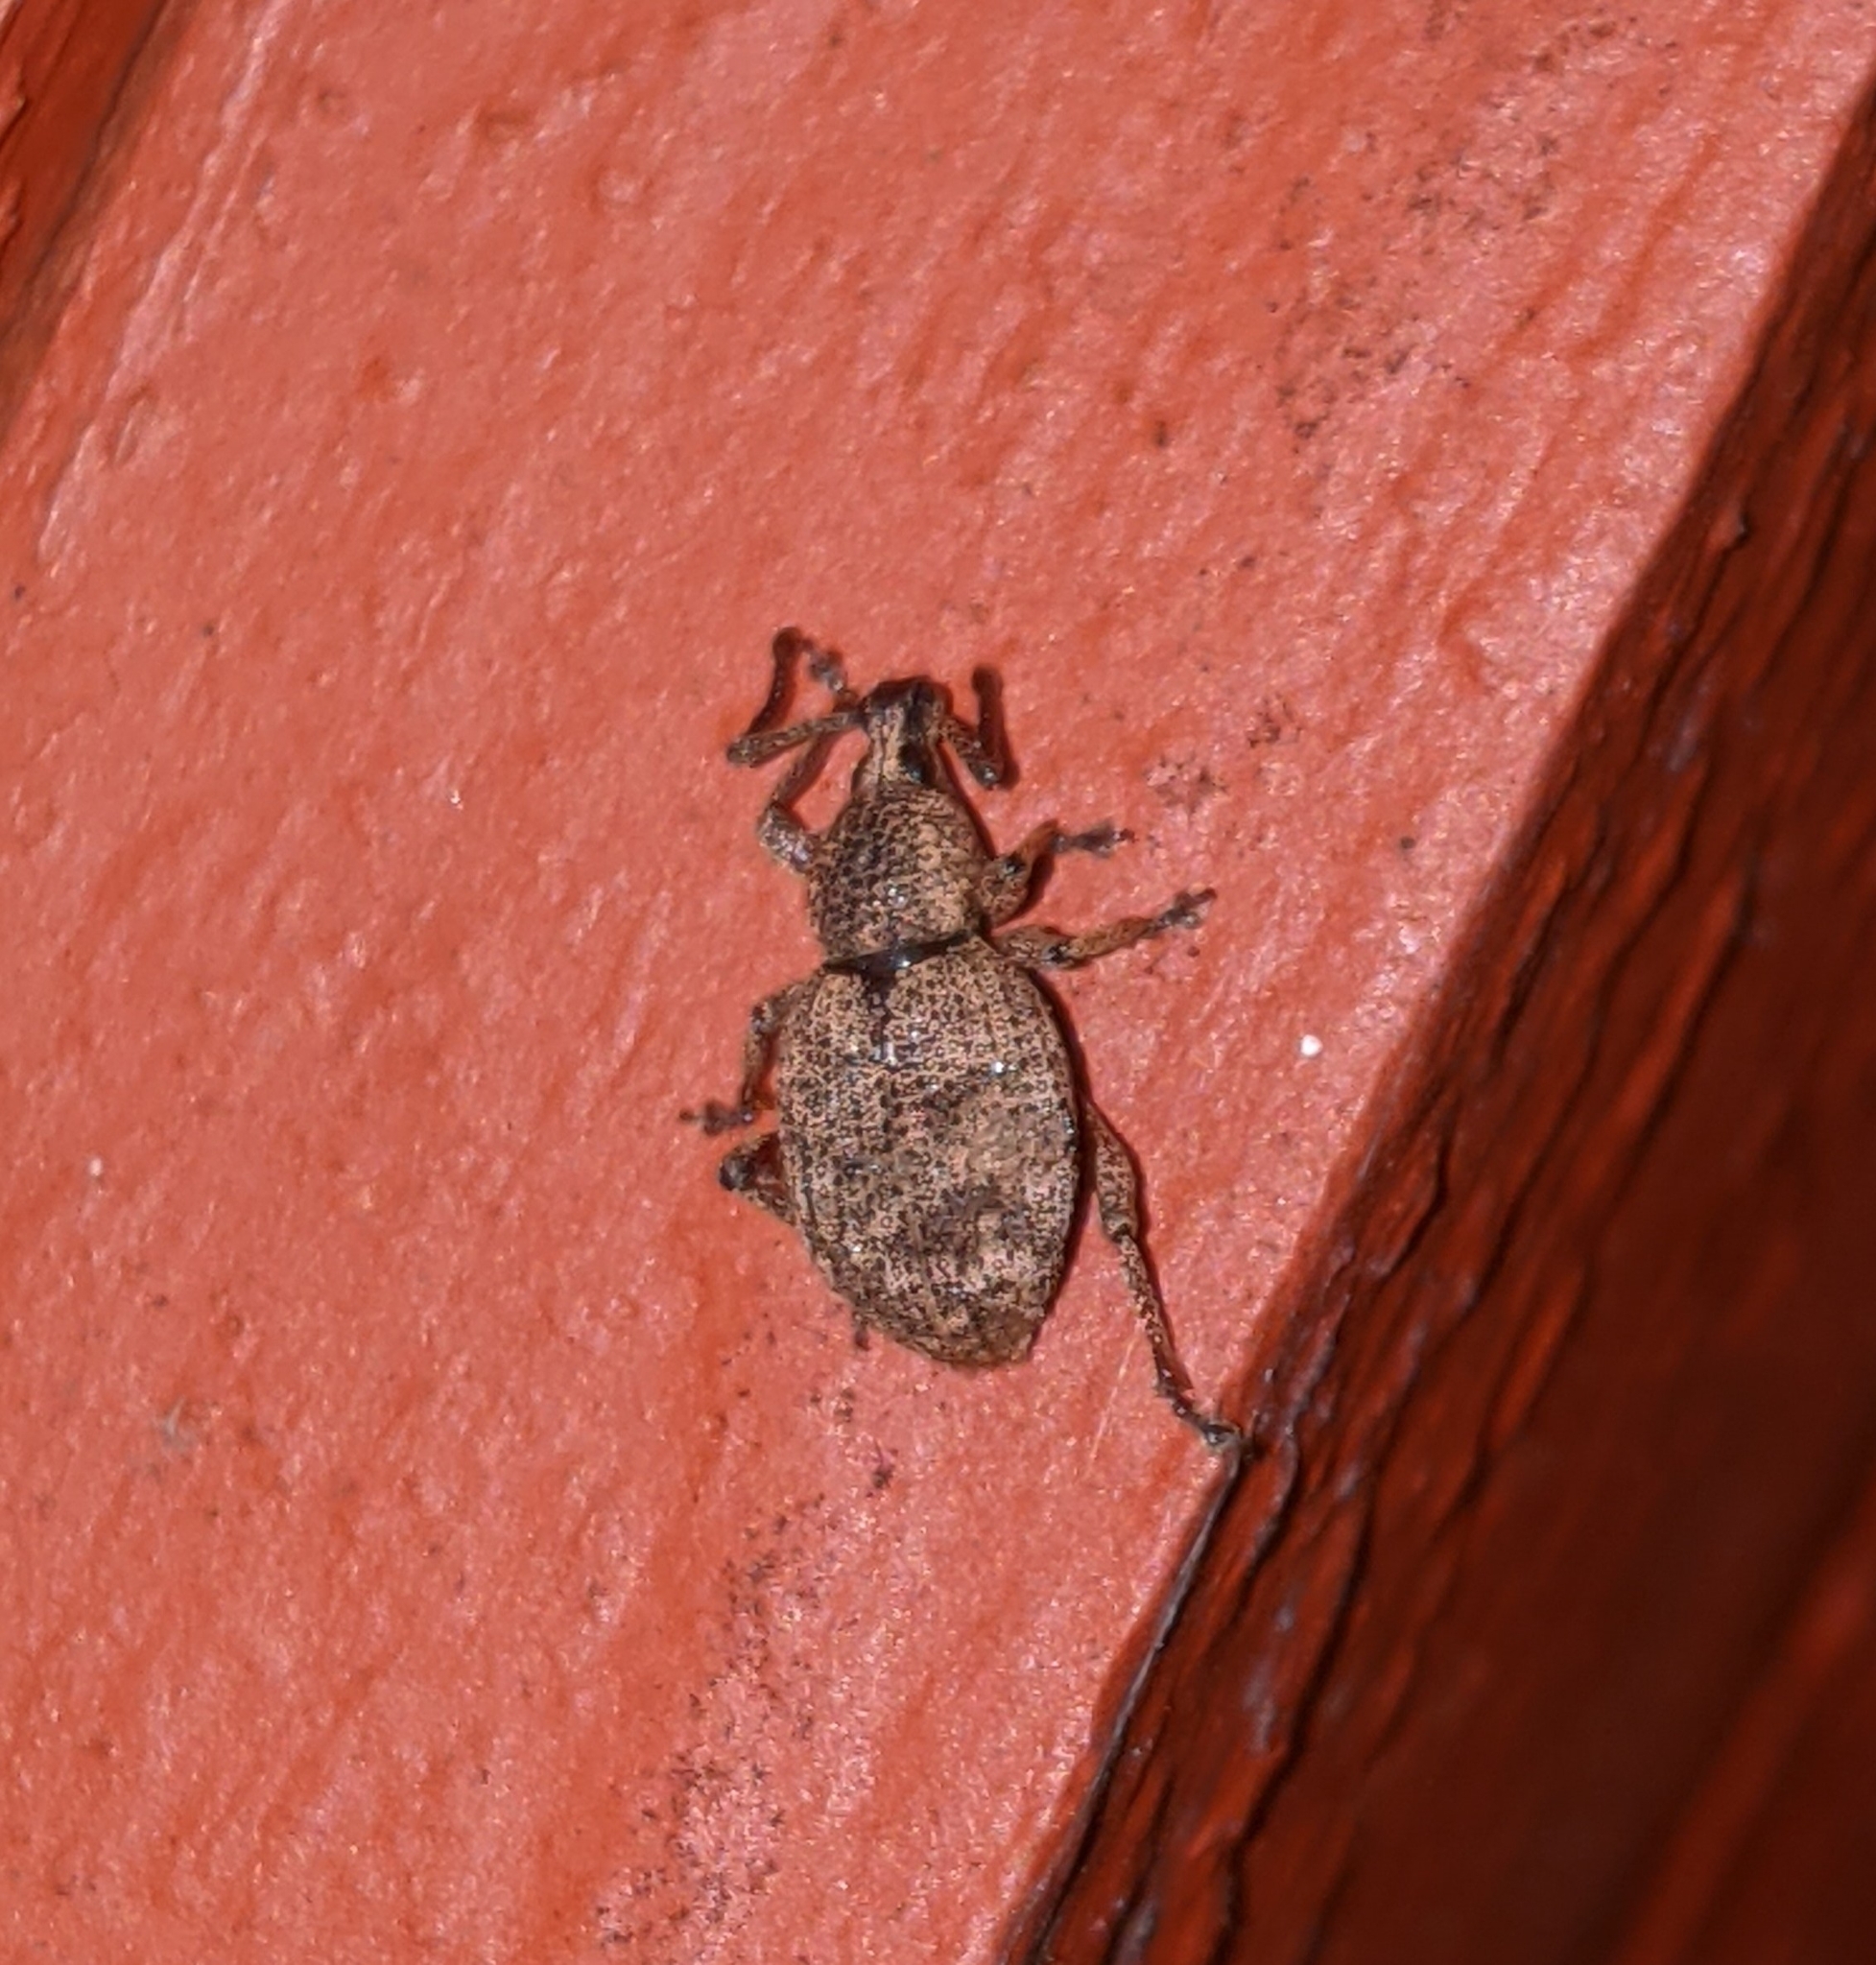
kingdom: Animalia
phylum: Arthropoda
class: Insecta
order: Coleoptera
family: Curculionidae
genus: Otiorhynchus
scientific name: Otiorhynchus singularis
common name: Clay-coloured weevil
